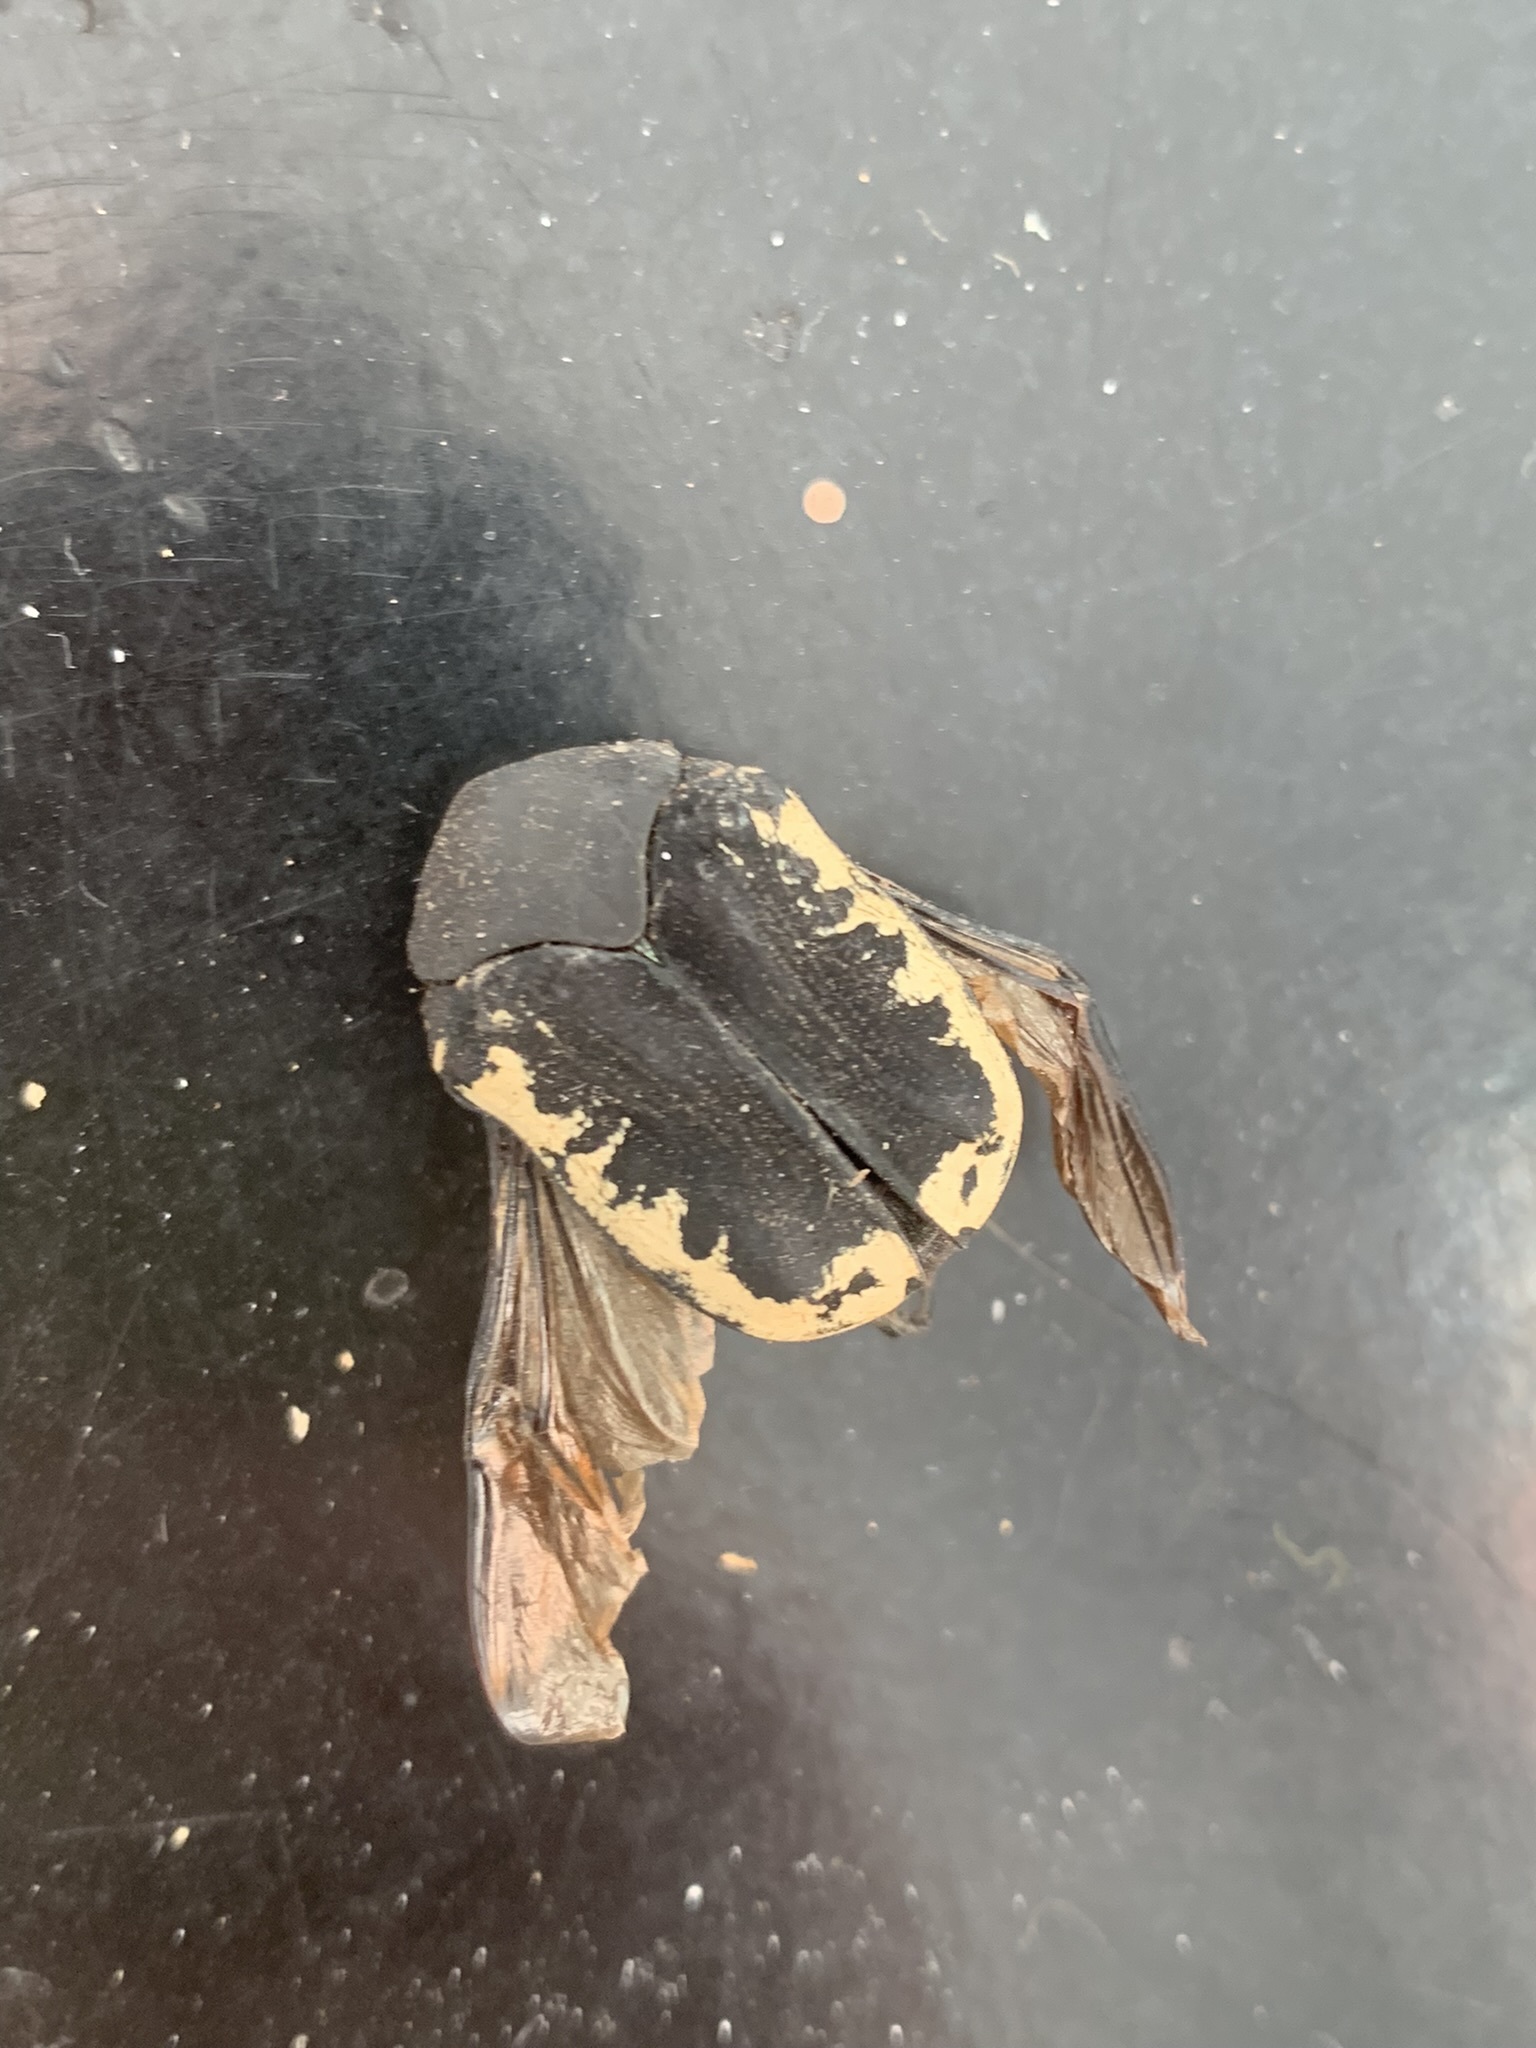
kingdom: Animalia
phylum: Arthropoda
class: Insecta
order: Coleoptera
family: Scarabaeidae
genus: Gymnetis
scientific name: Gymnetis pudibunda
